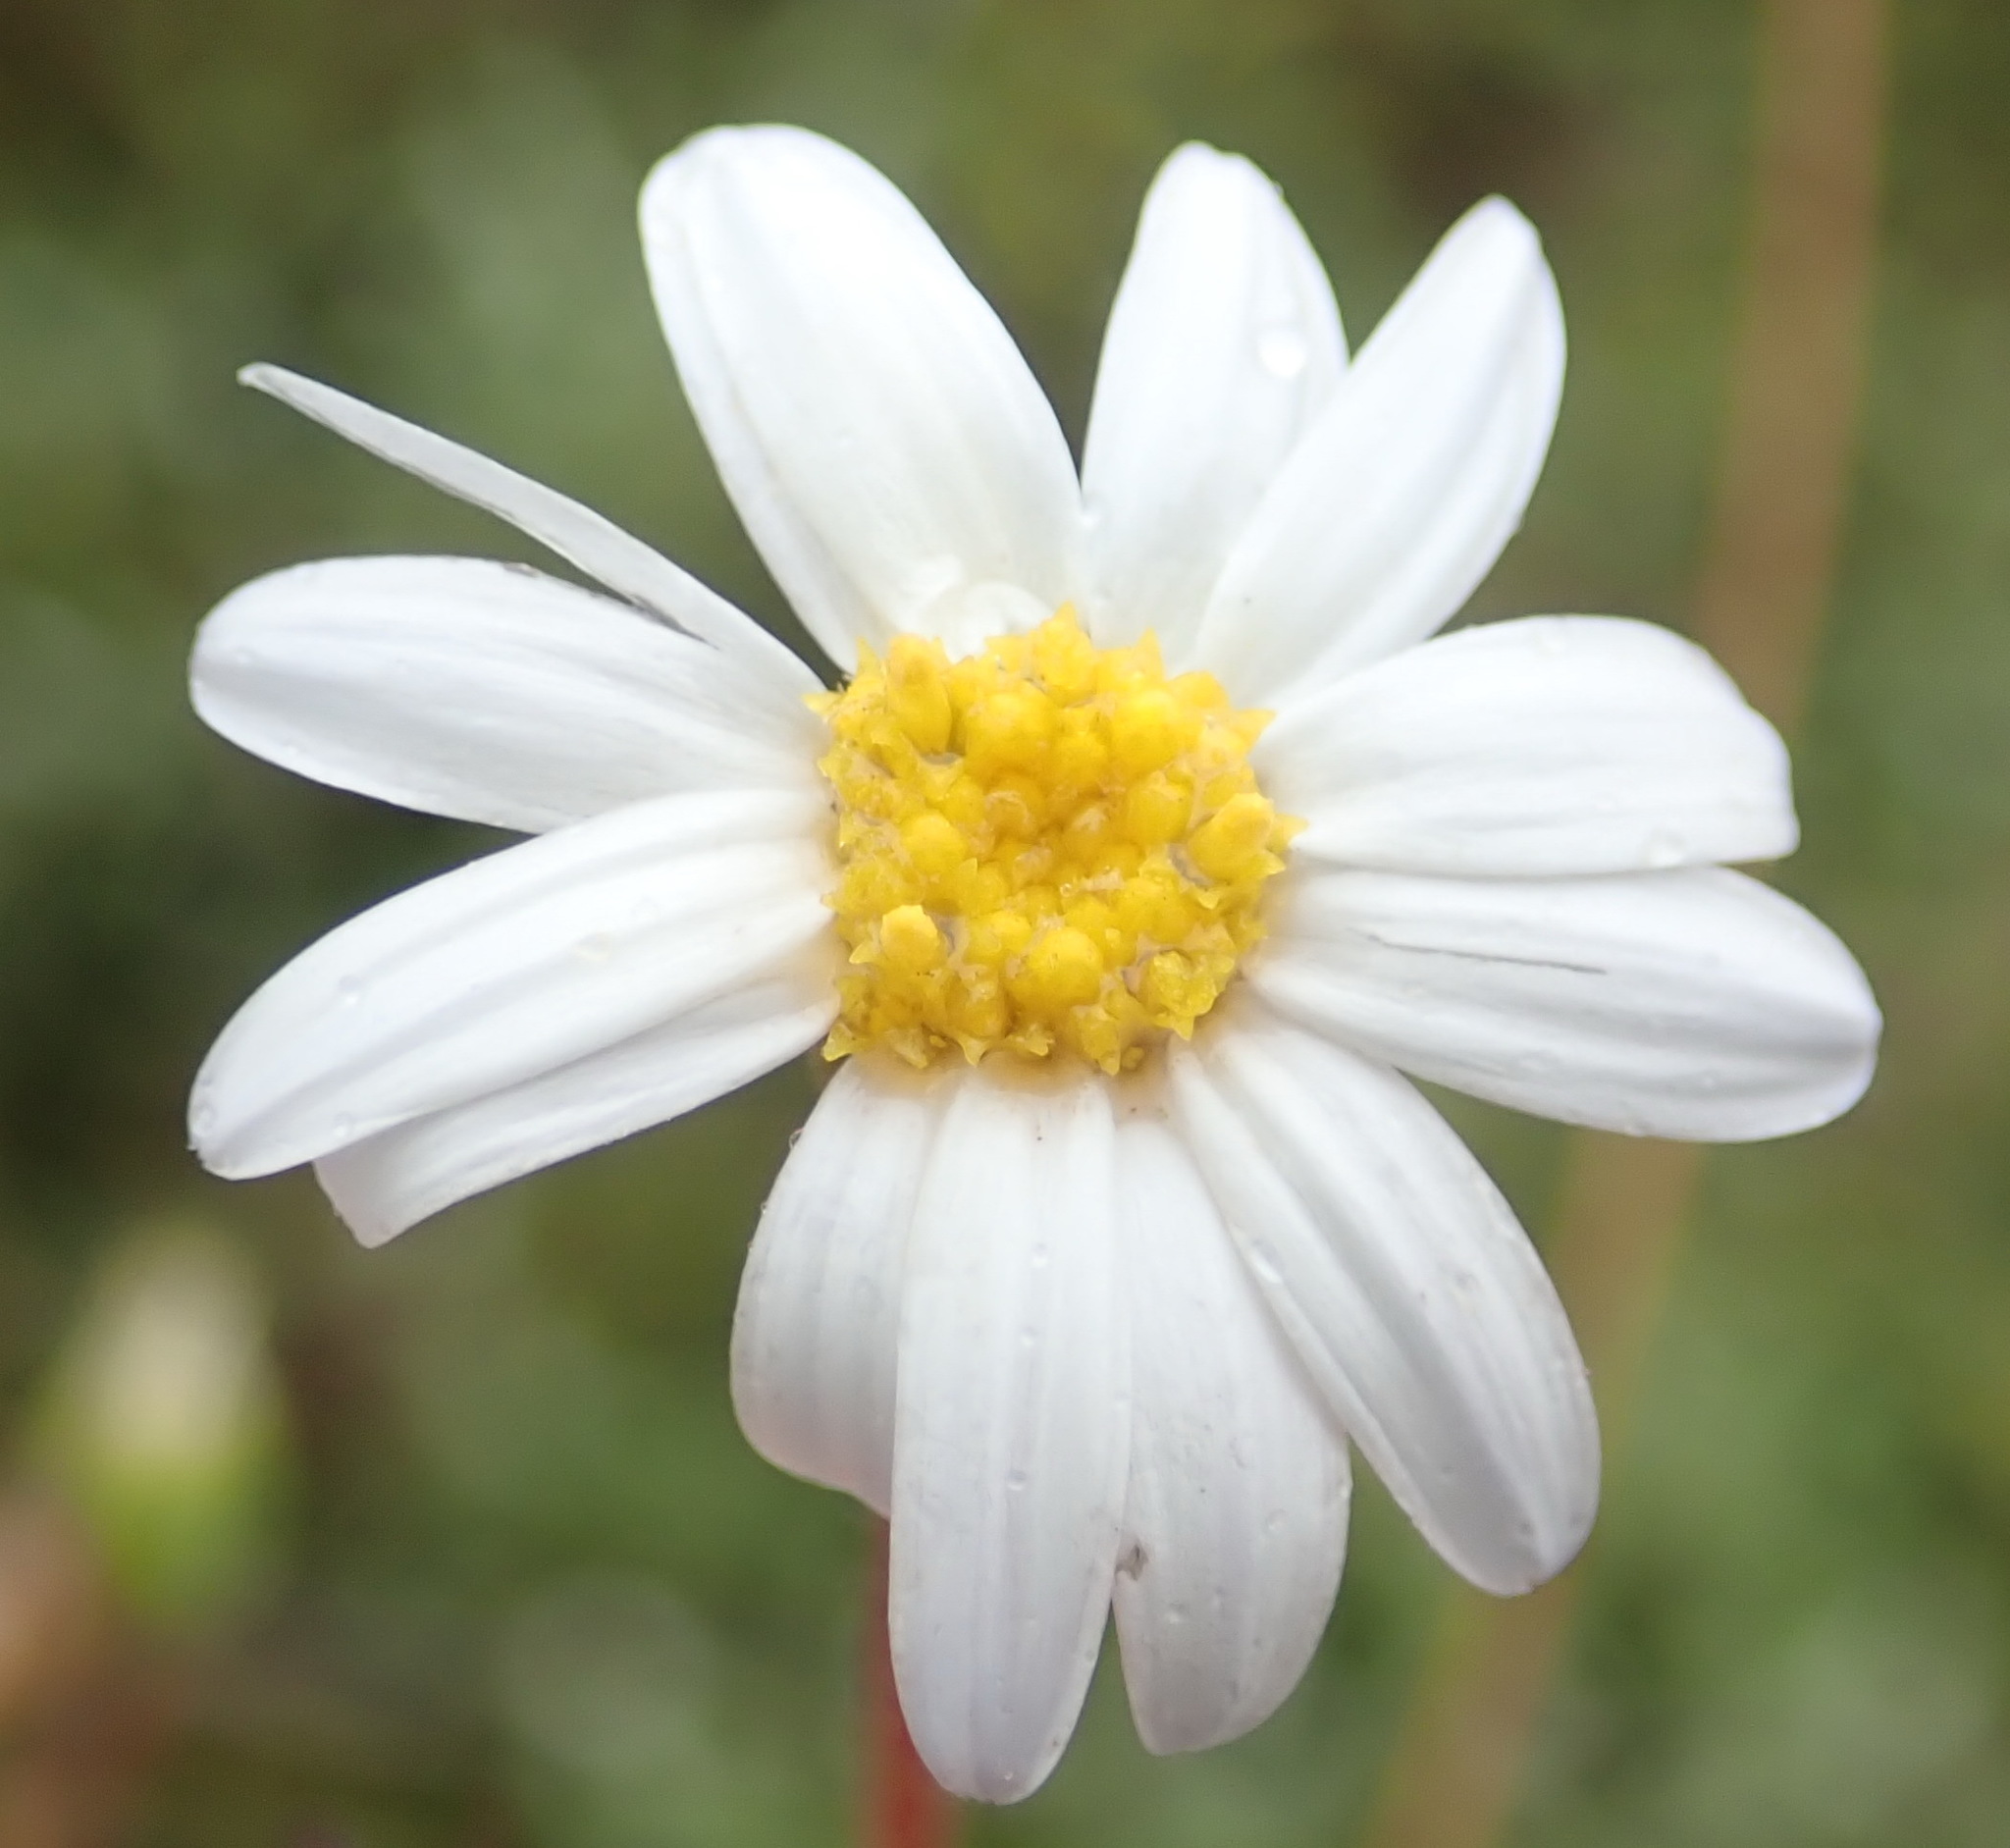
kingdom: Plantae
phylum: Tracheophyta
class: Magnoliopsida
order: Asterales
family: Asteraceae
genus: Felicia
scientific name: Felicia amoena
